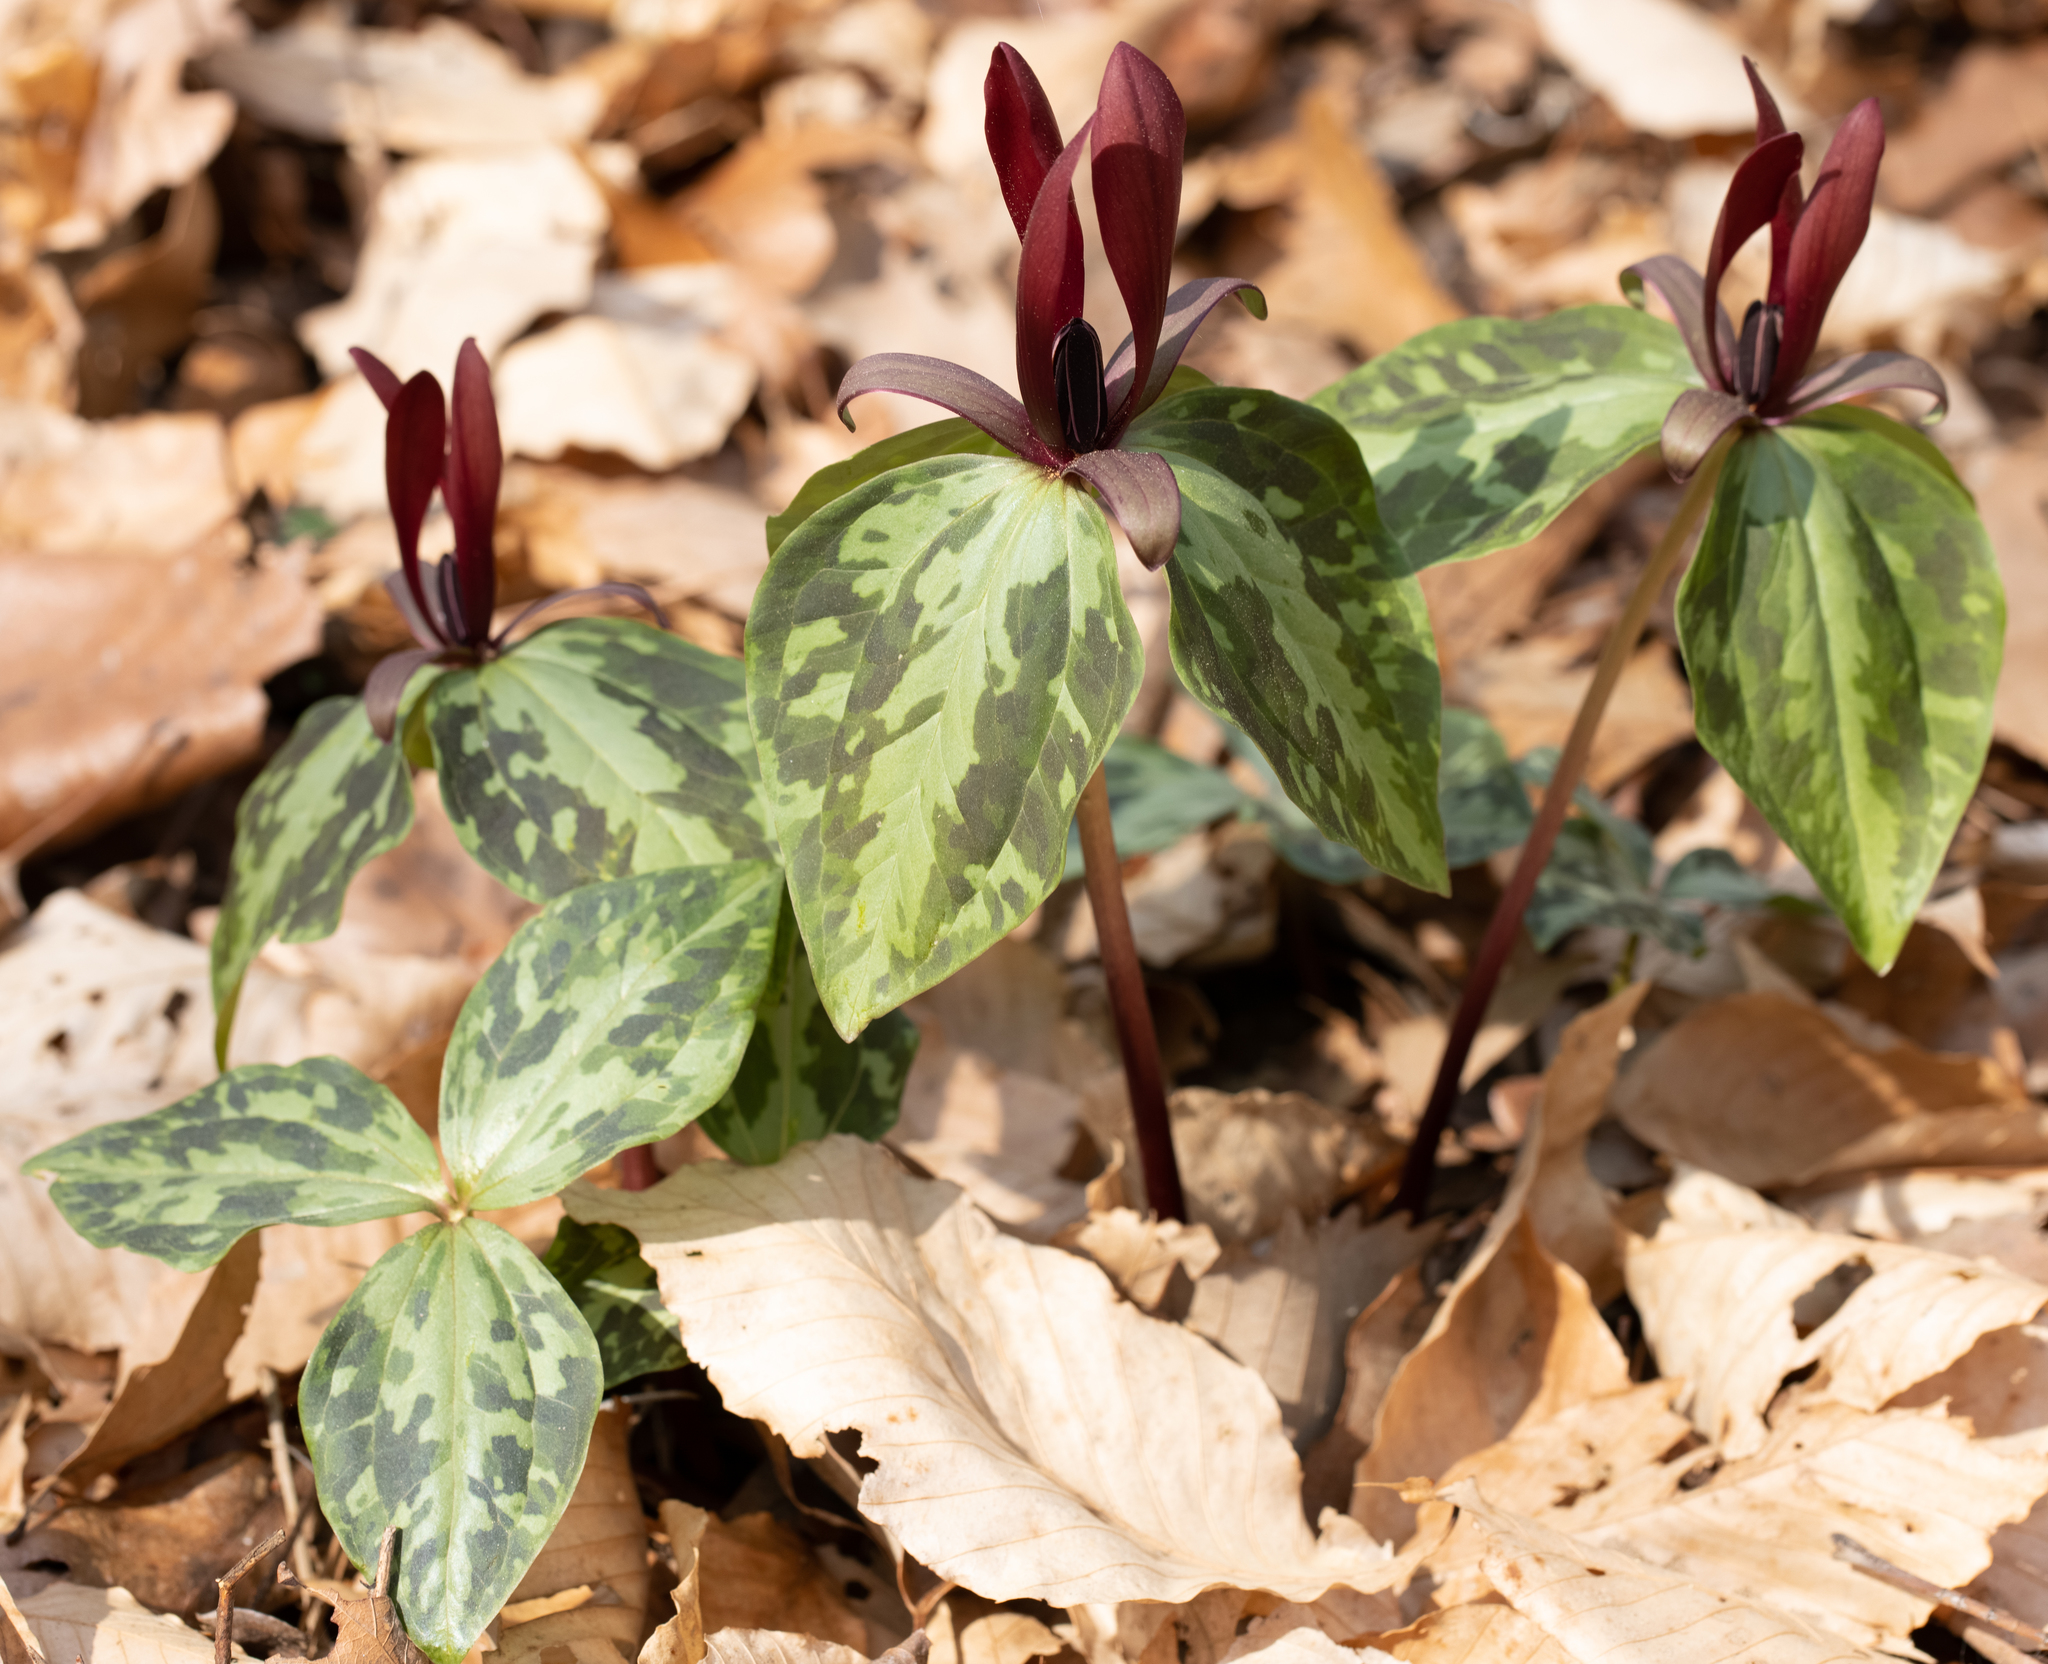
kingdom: Plantae
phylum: Tracheophyta
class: Liliopsida
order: Liliales
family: Melanthiaceae
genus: Trillium
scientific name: Trillium maculatum
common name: Mottled trillium
